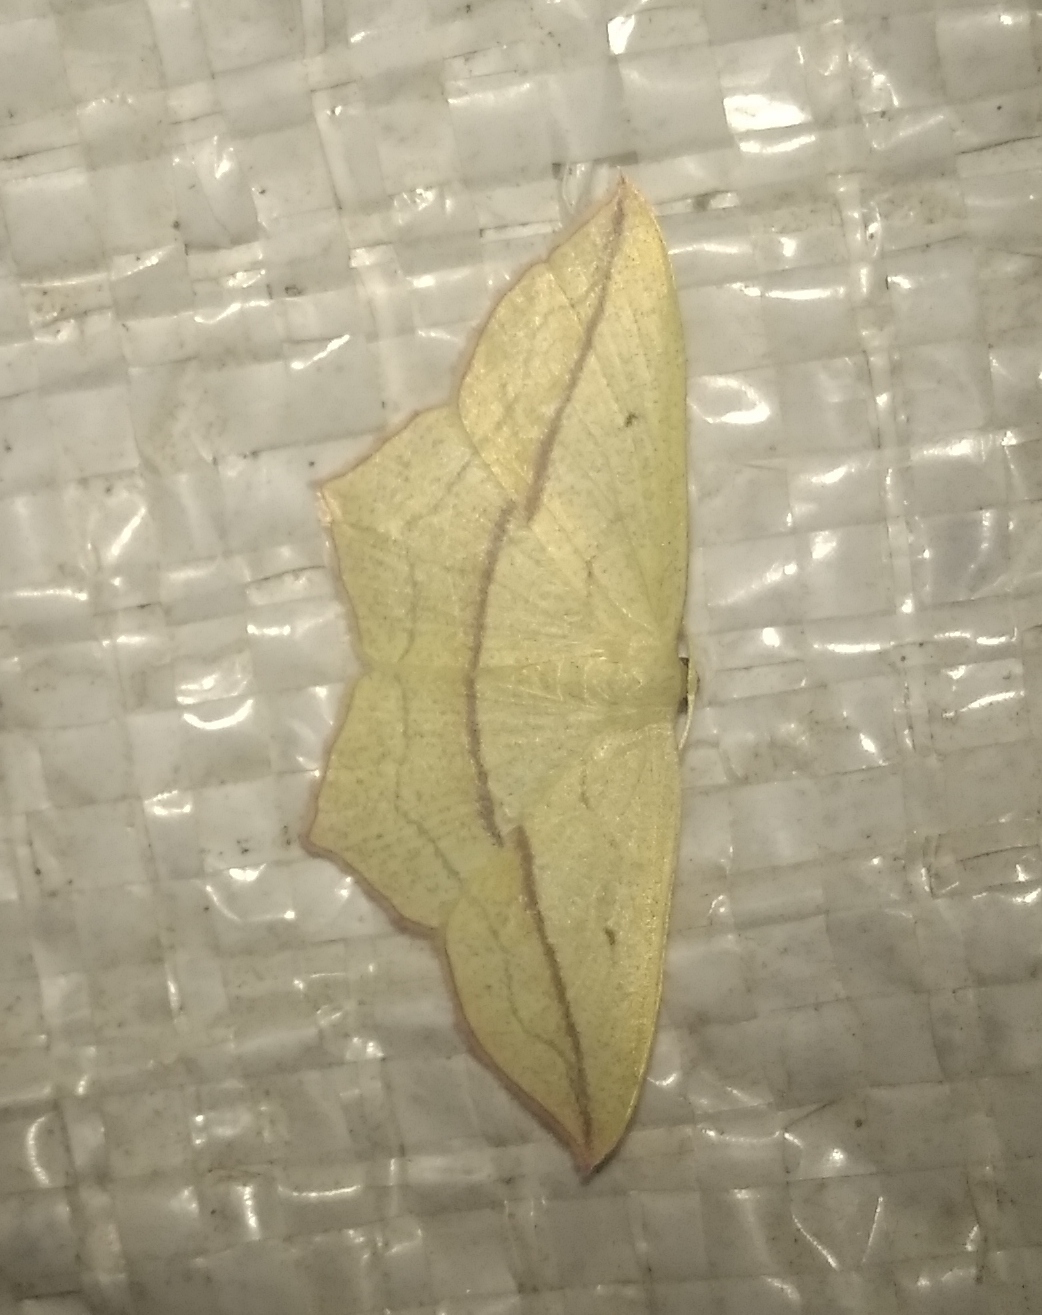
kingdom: Animalia
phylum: Arthropoda
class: Insecta
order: Lepidoptera
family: Geometridae
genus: Timandra
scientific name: Timandra comae
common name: Blood-vein
